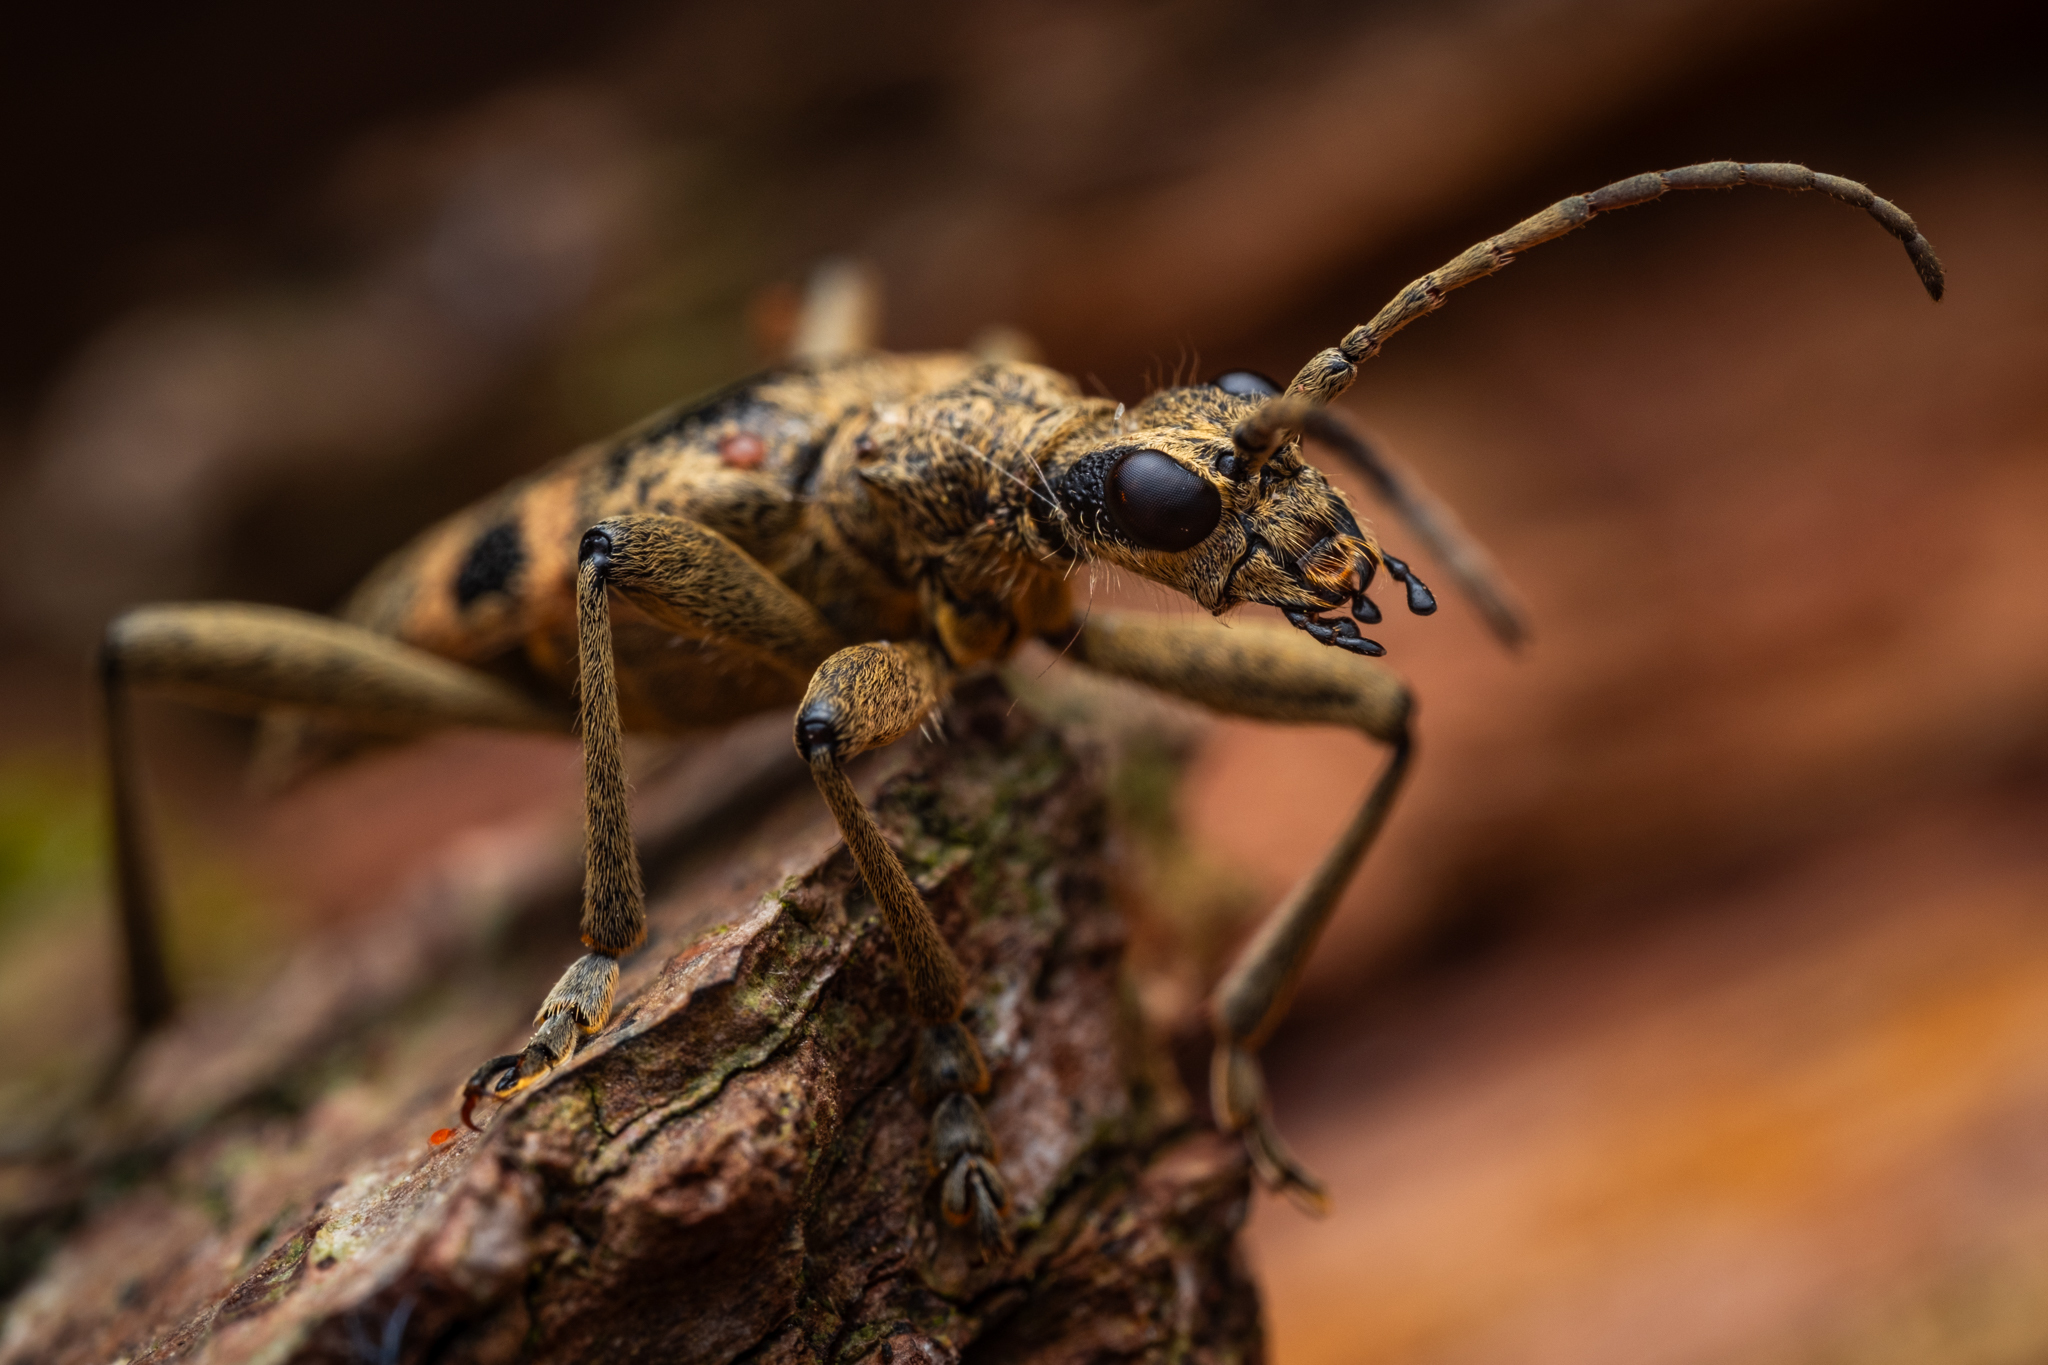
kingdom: Animalia
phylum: Arthropoda
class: Insecta
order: Coleoptera
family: Cerambycidae
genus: Rhagium
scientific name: Rhagium mordax
